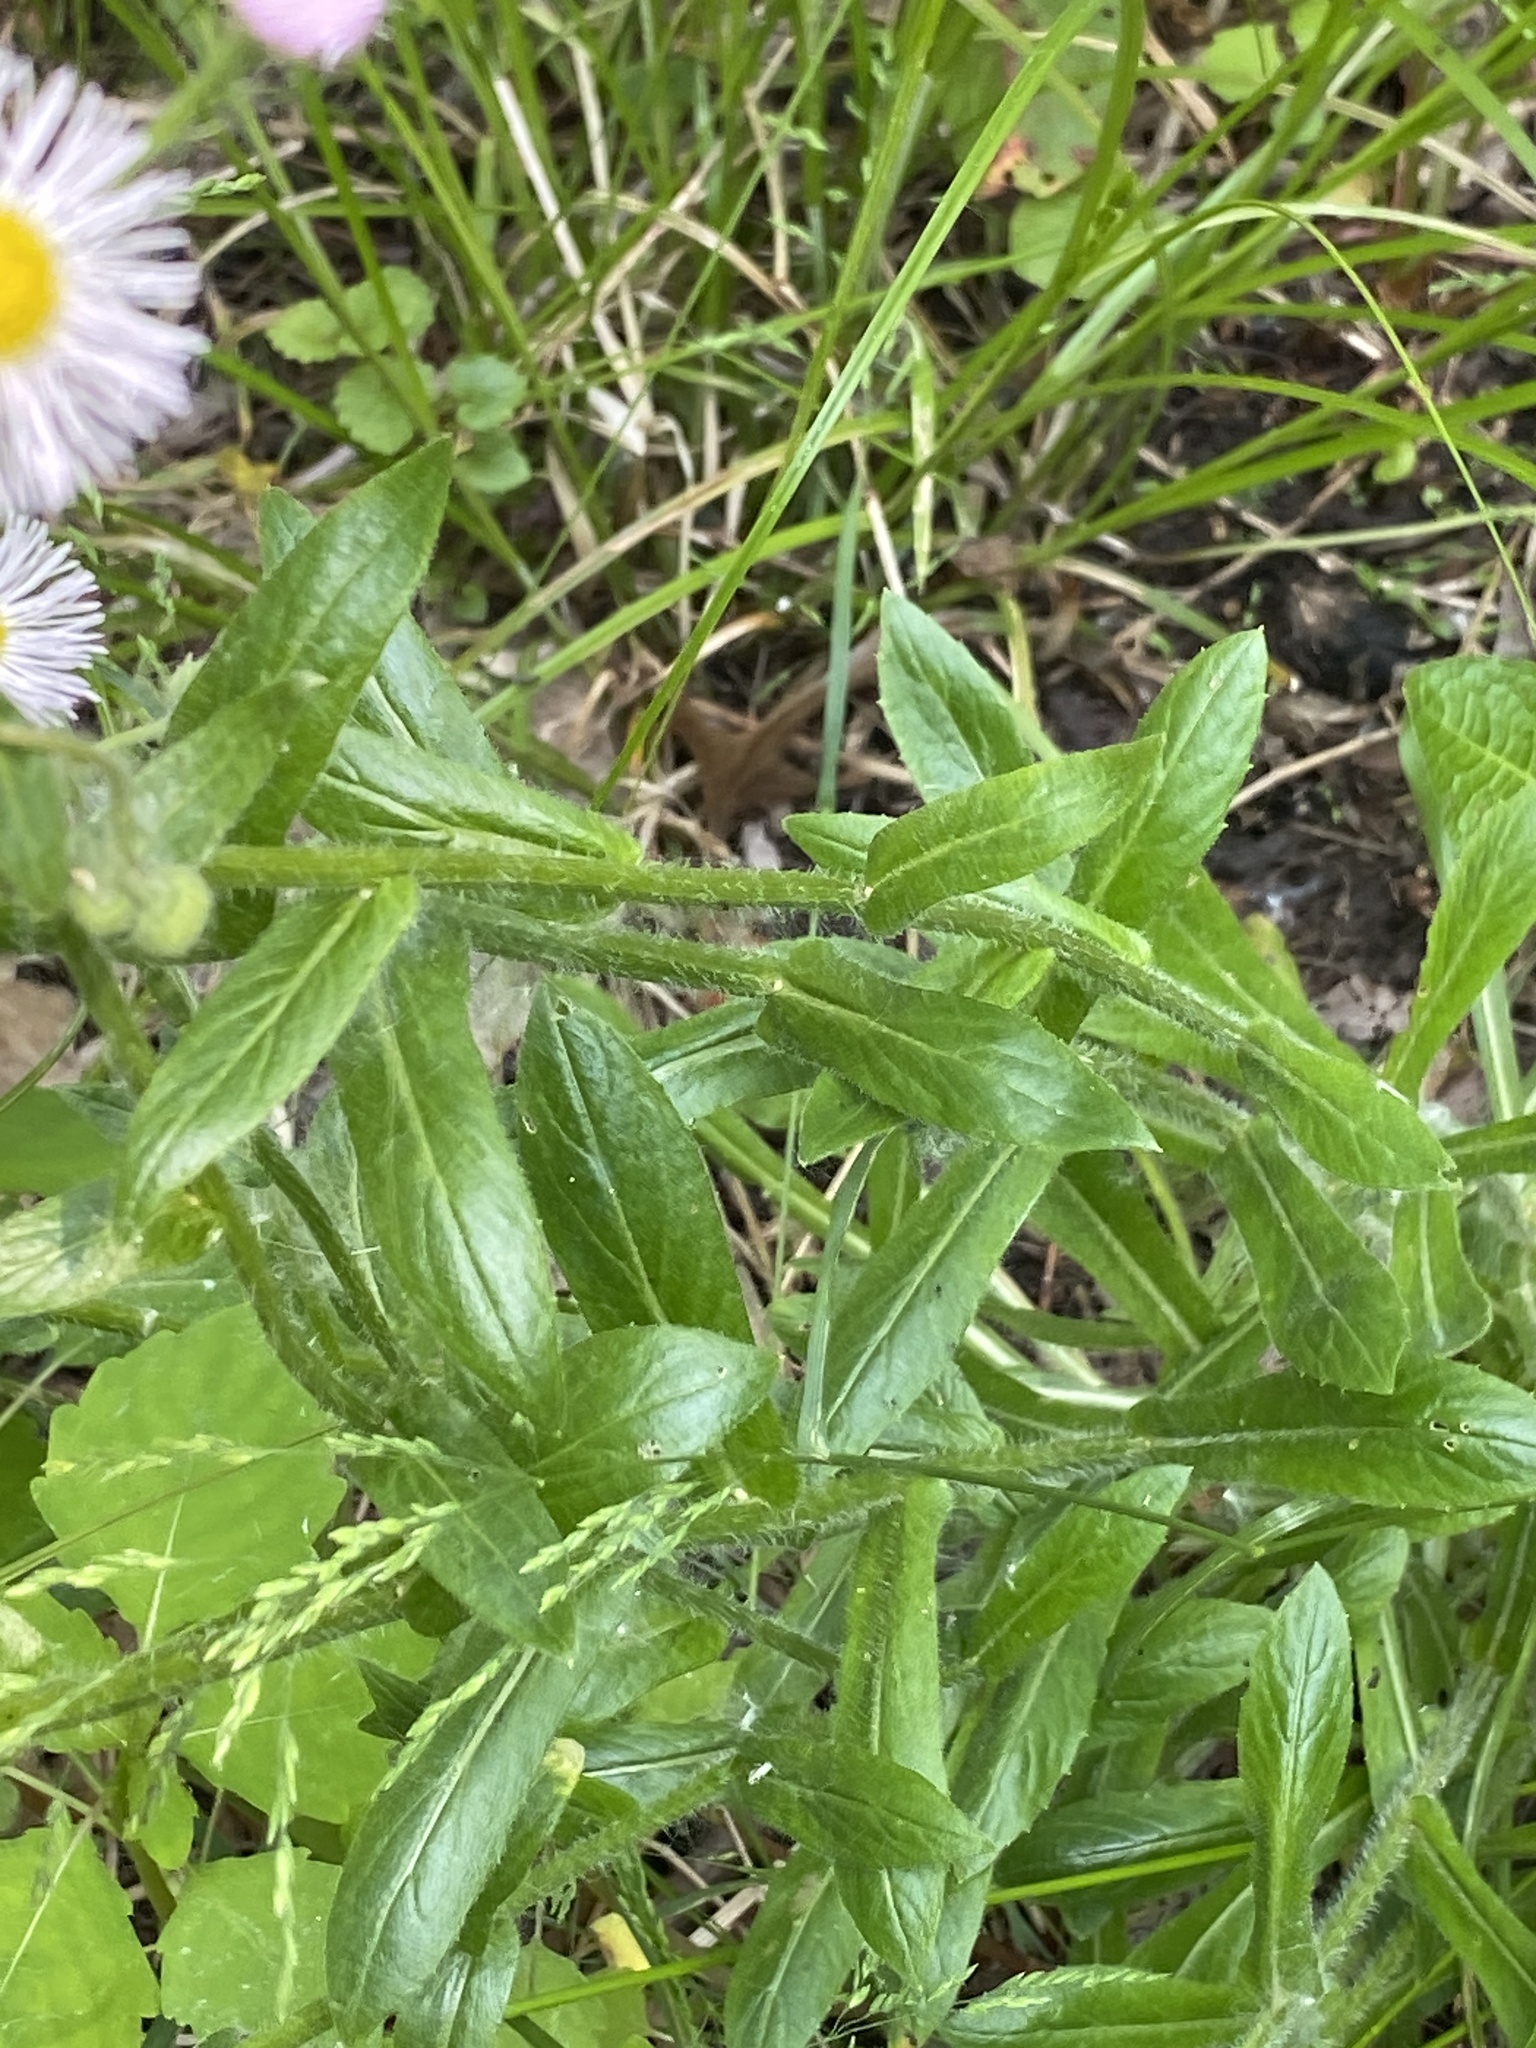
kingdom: Plantae
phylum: Tracheophyta
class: Magnoliopsida
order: Asterales
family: Asteraceae
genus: Erigeron
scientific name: Erigeron philadelphicus
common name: Robin's-plantain
